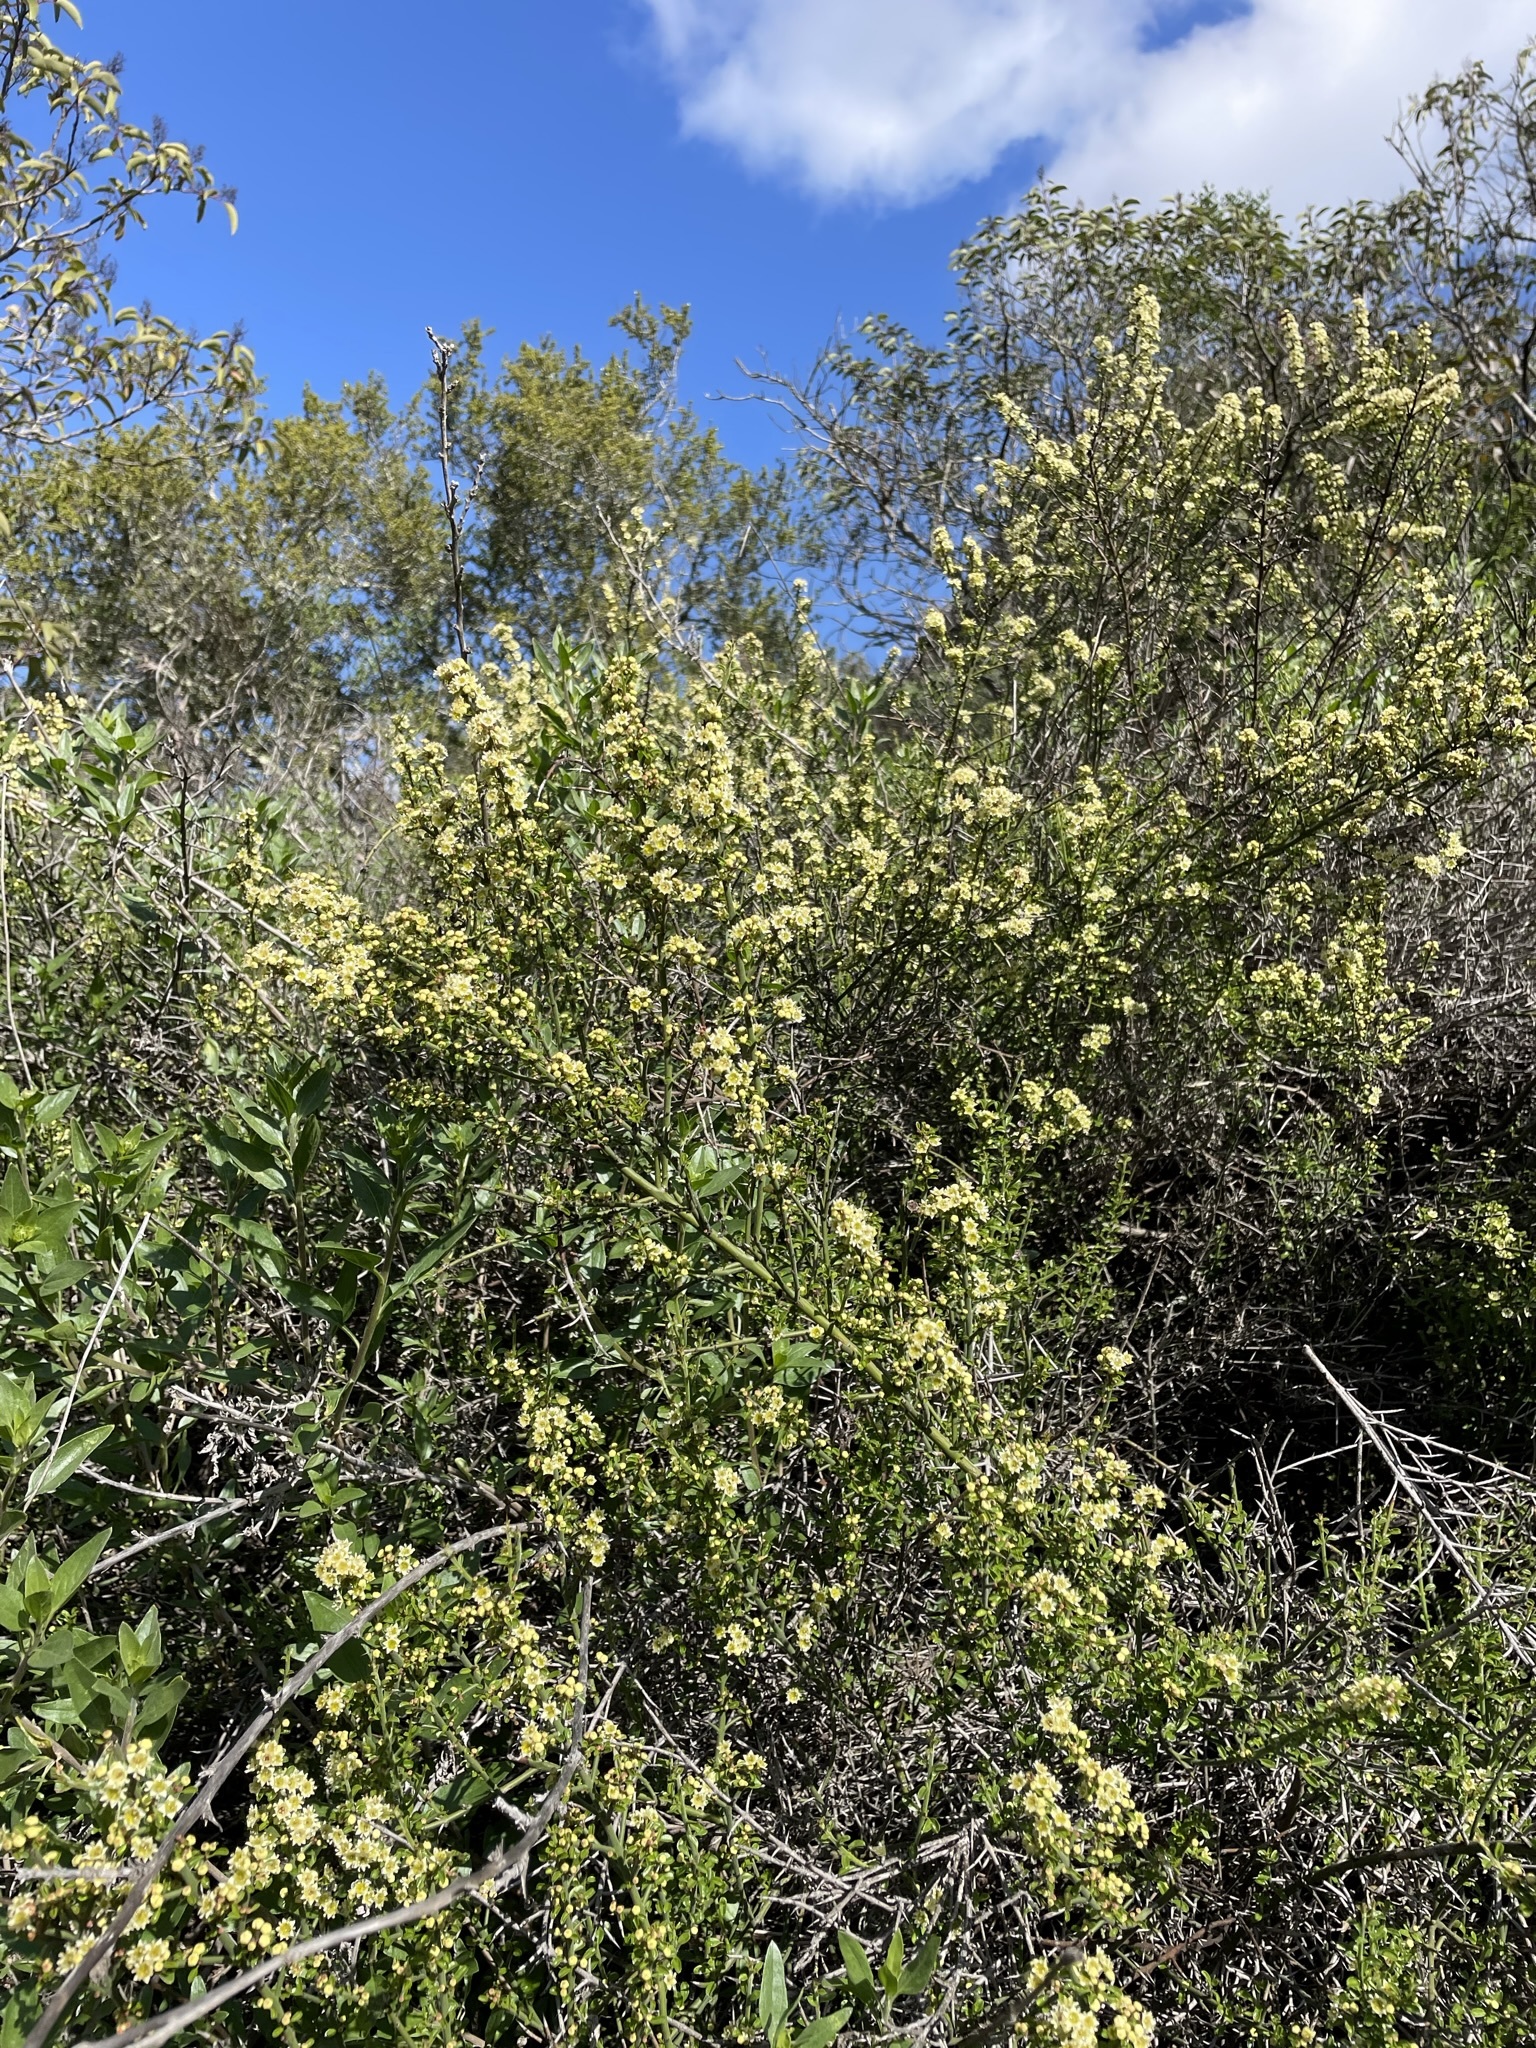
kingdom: Plantae
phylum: Tracheophyta
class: Magnoliopsida
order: Rosales
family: Rhamnaceae
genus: Adolphia
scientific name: Adolphia californica
